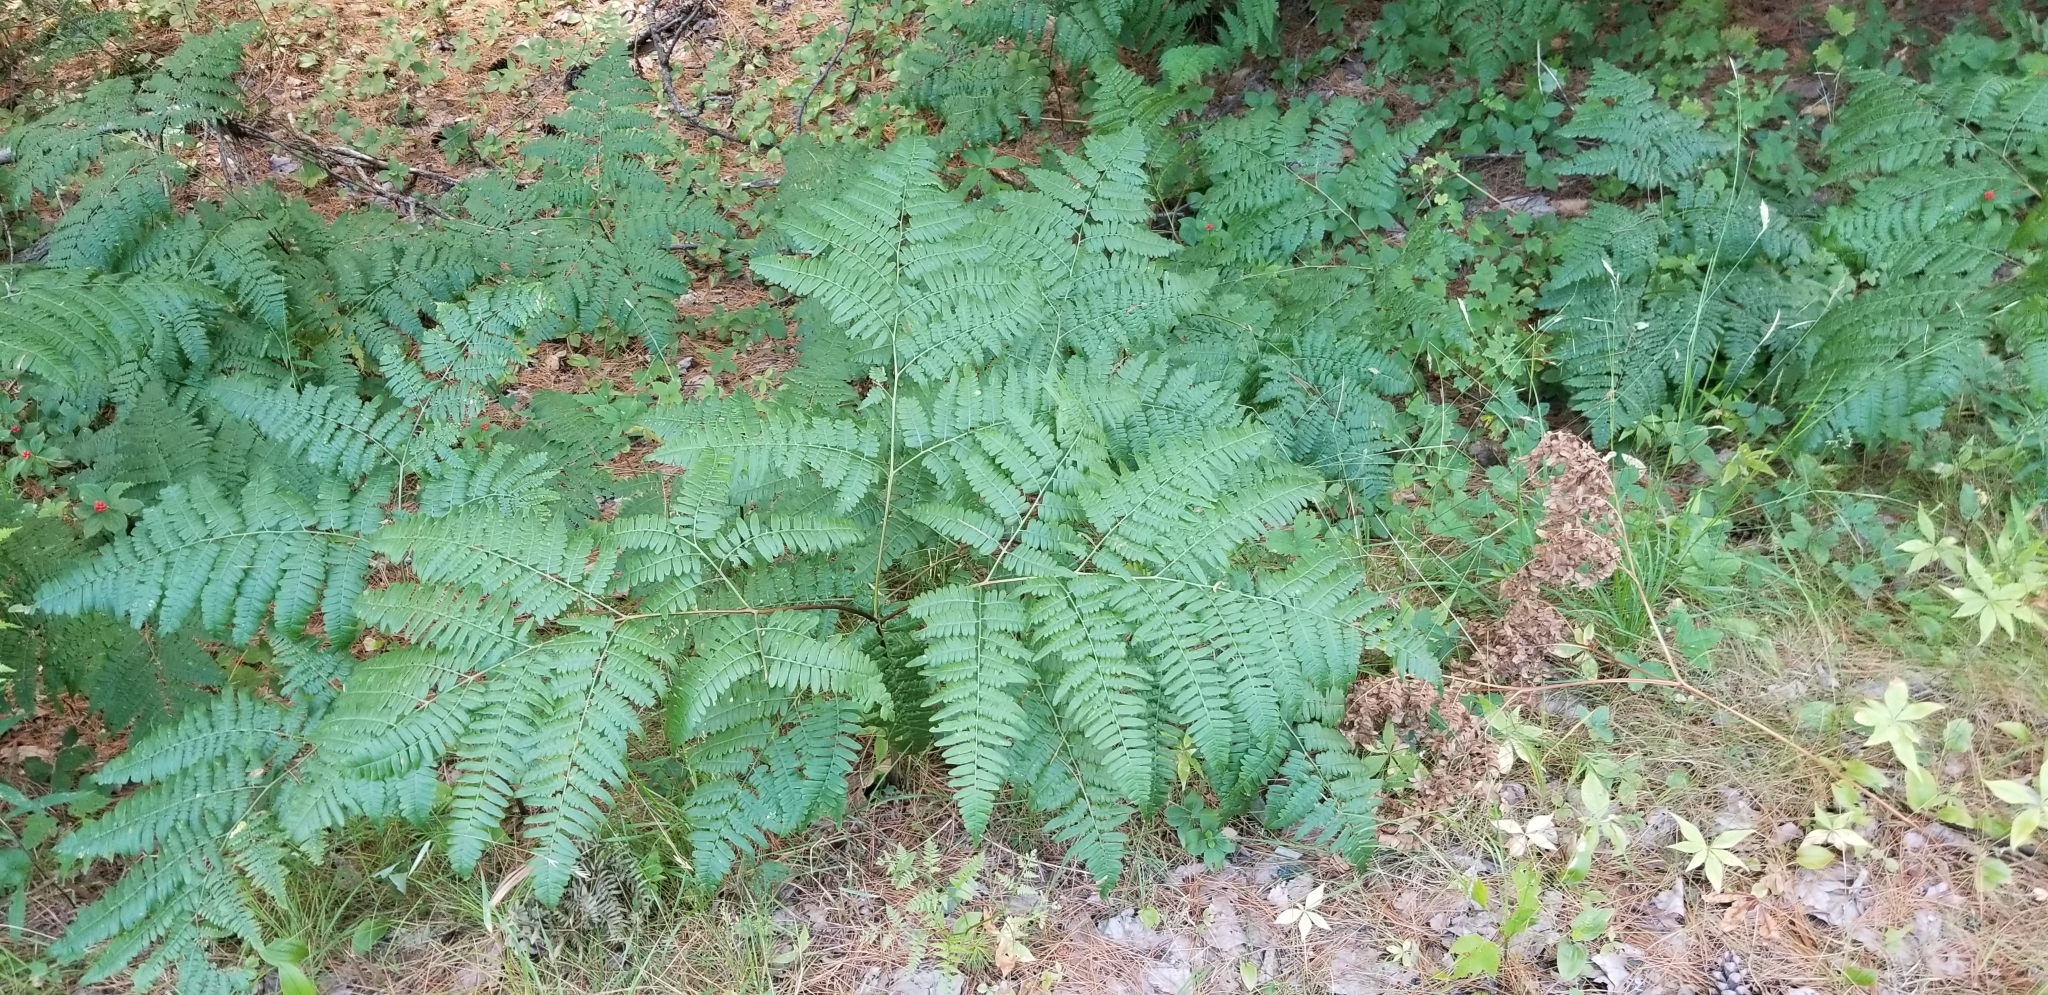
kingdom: Plantae
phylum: Tracheophyta
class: Polypodiopsida
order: Polypodiales
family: Dennstaedtiaceae
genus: Pteridium
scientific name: Pteridium aquilinum
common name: Bracken
